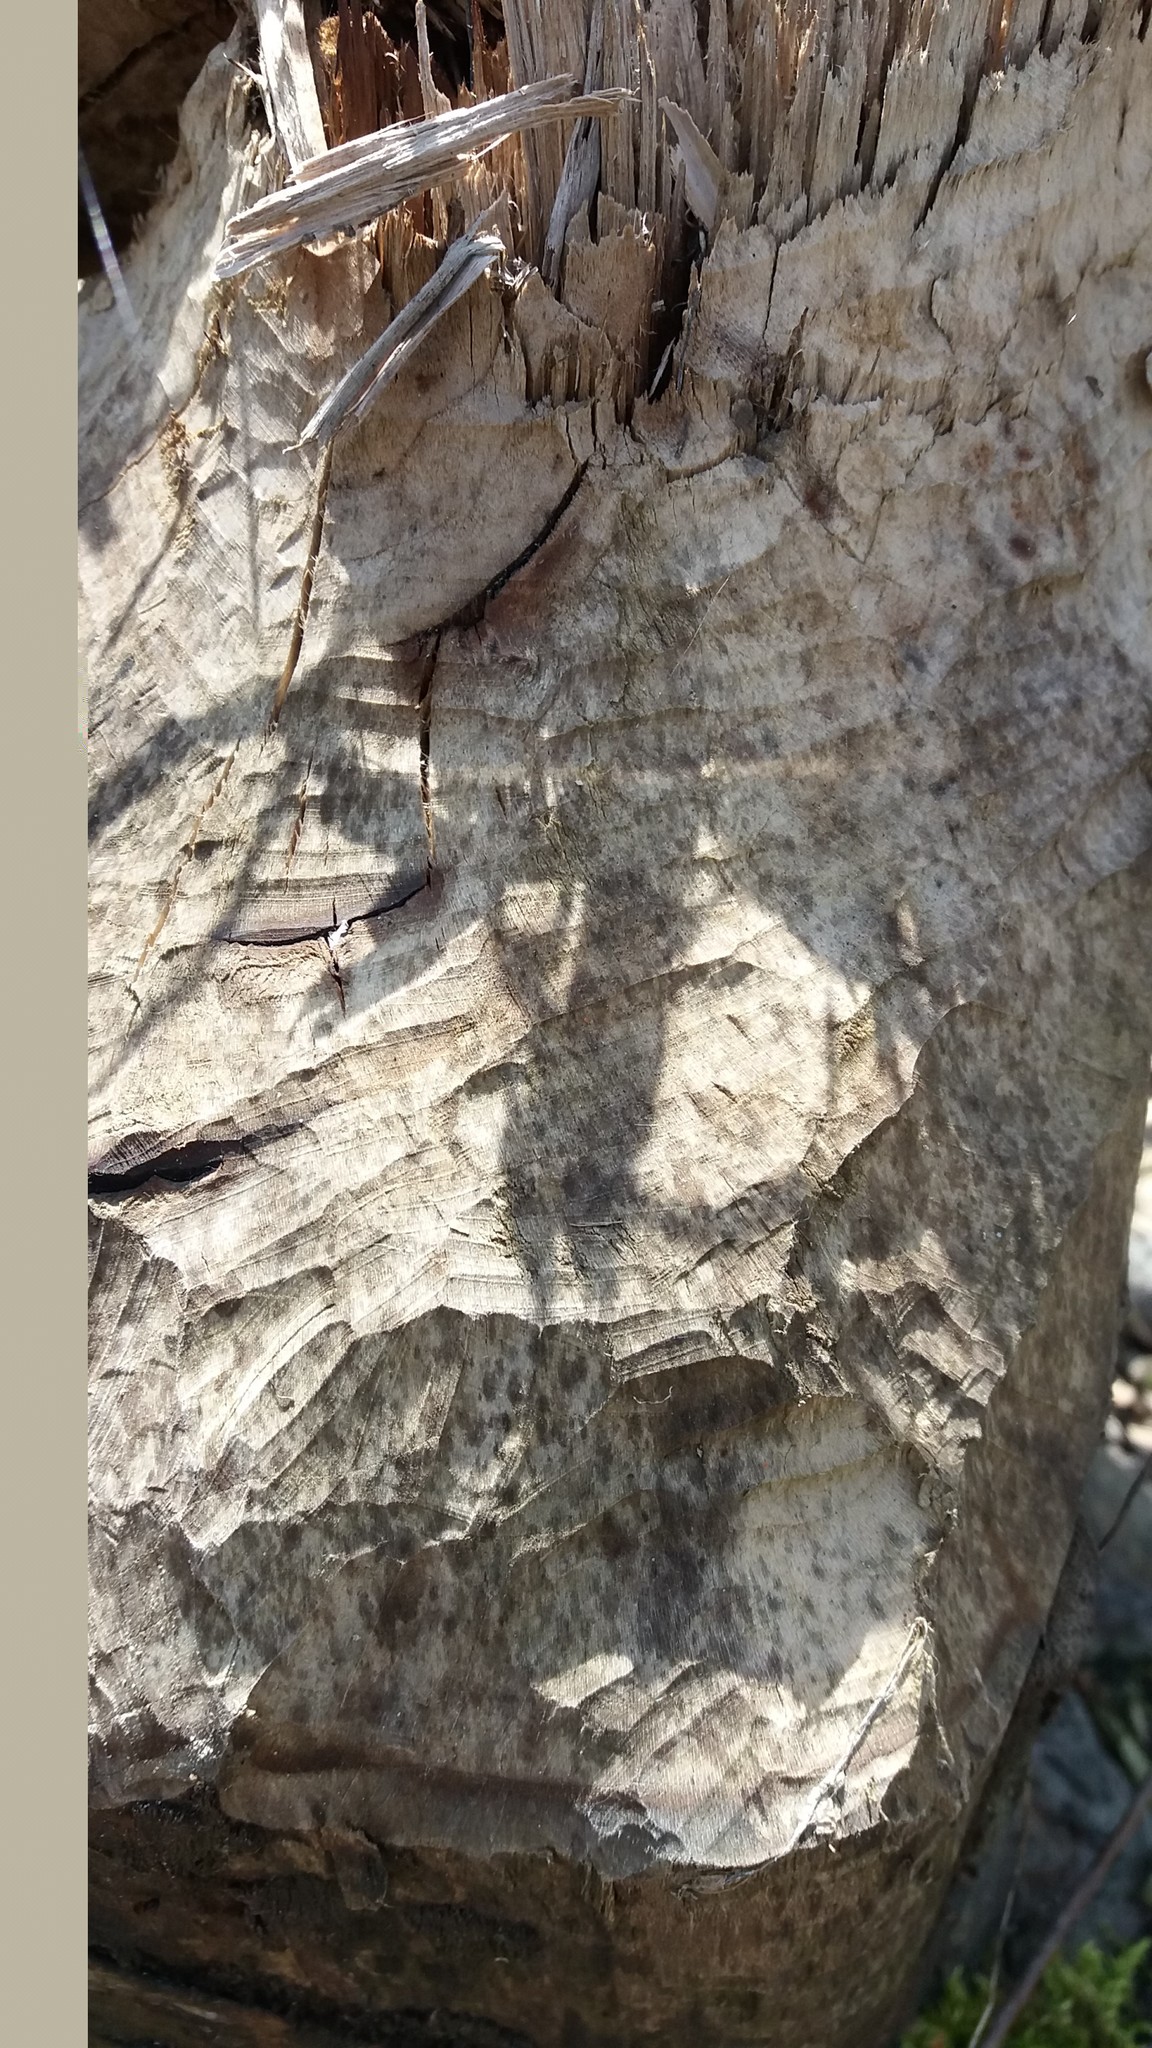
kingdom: Animalia
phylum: Chordata
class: Mammalia
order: Rodentia
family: Castoridae
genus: Castor
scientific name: Castor fiber
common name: Eurasian beaver
